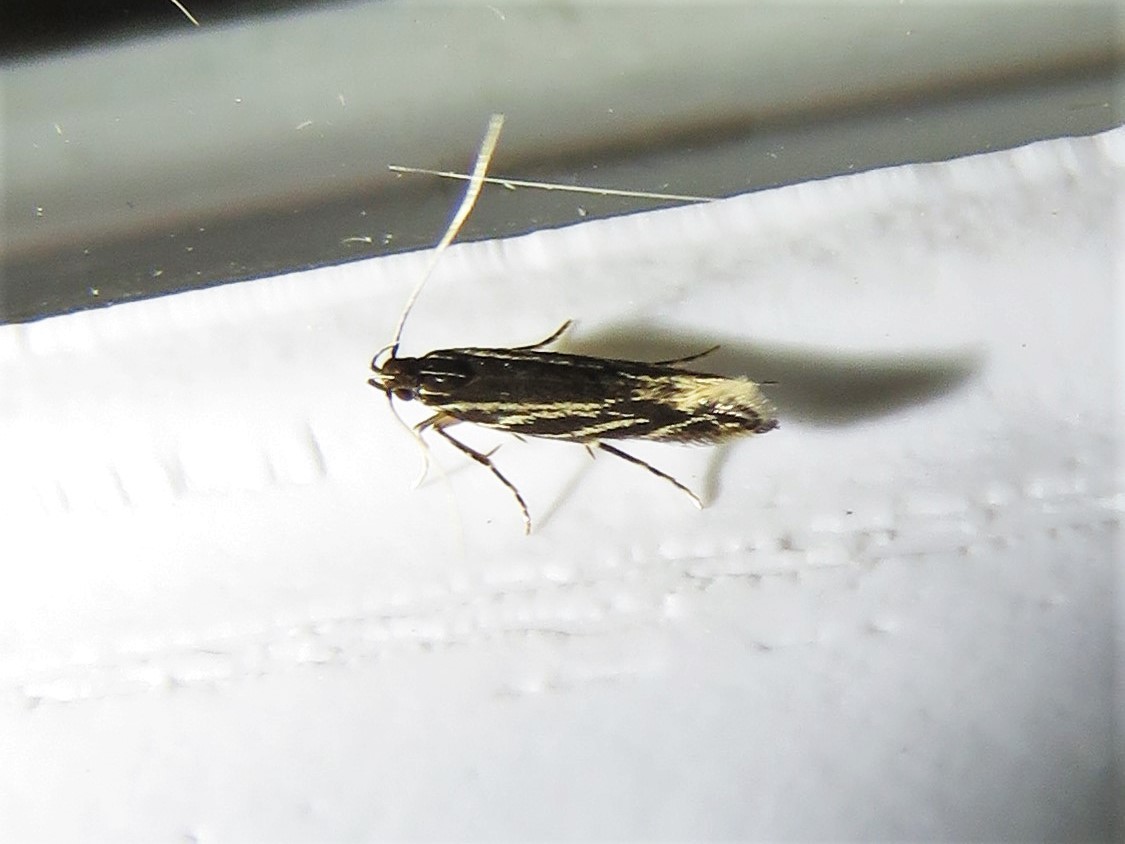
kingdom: Animalia
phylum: Arthropoda
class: Insecta
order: Lepidoptera
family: Cosmopterigidae
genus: Eralea
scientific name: Eralea albalineella
